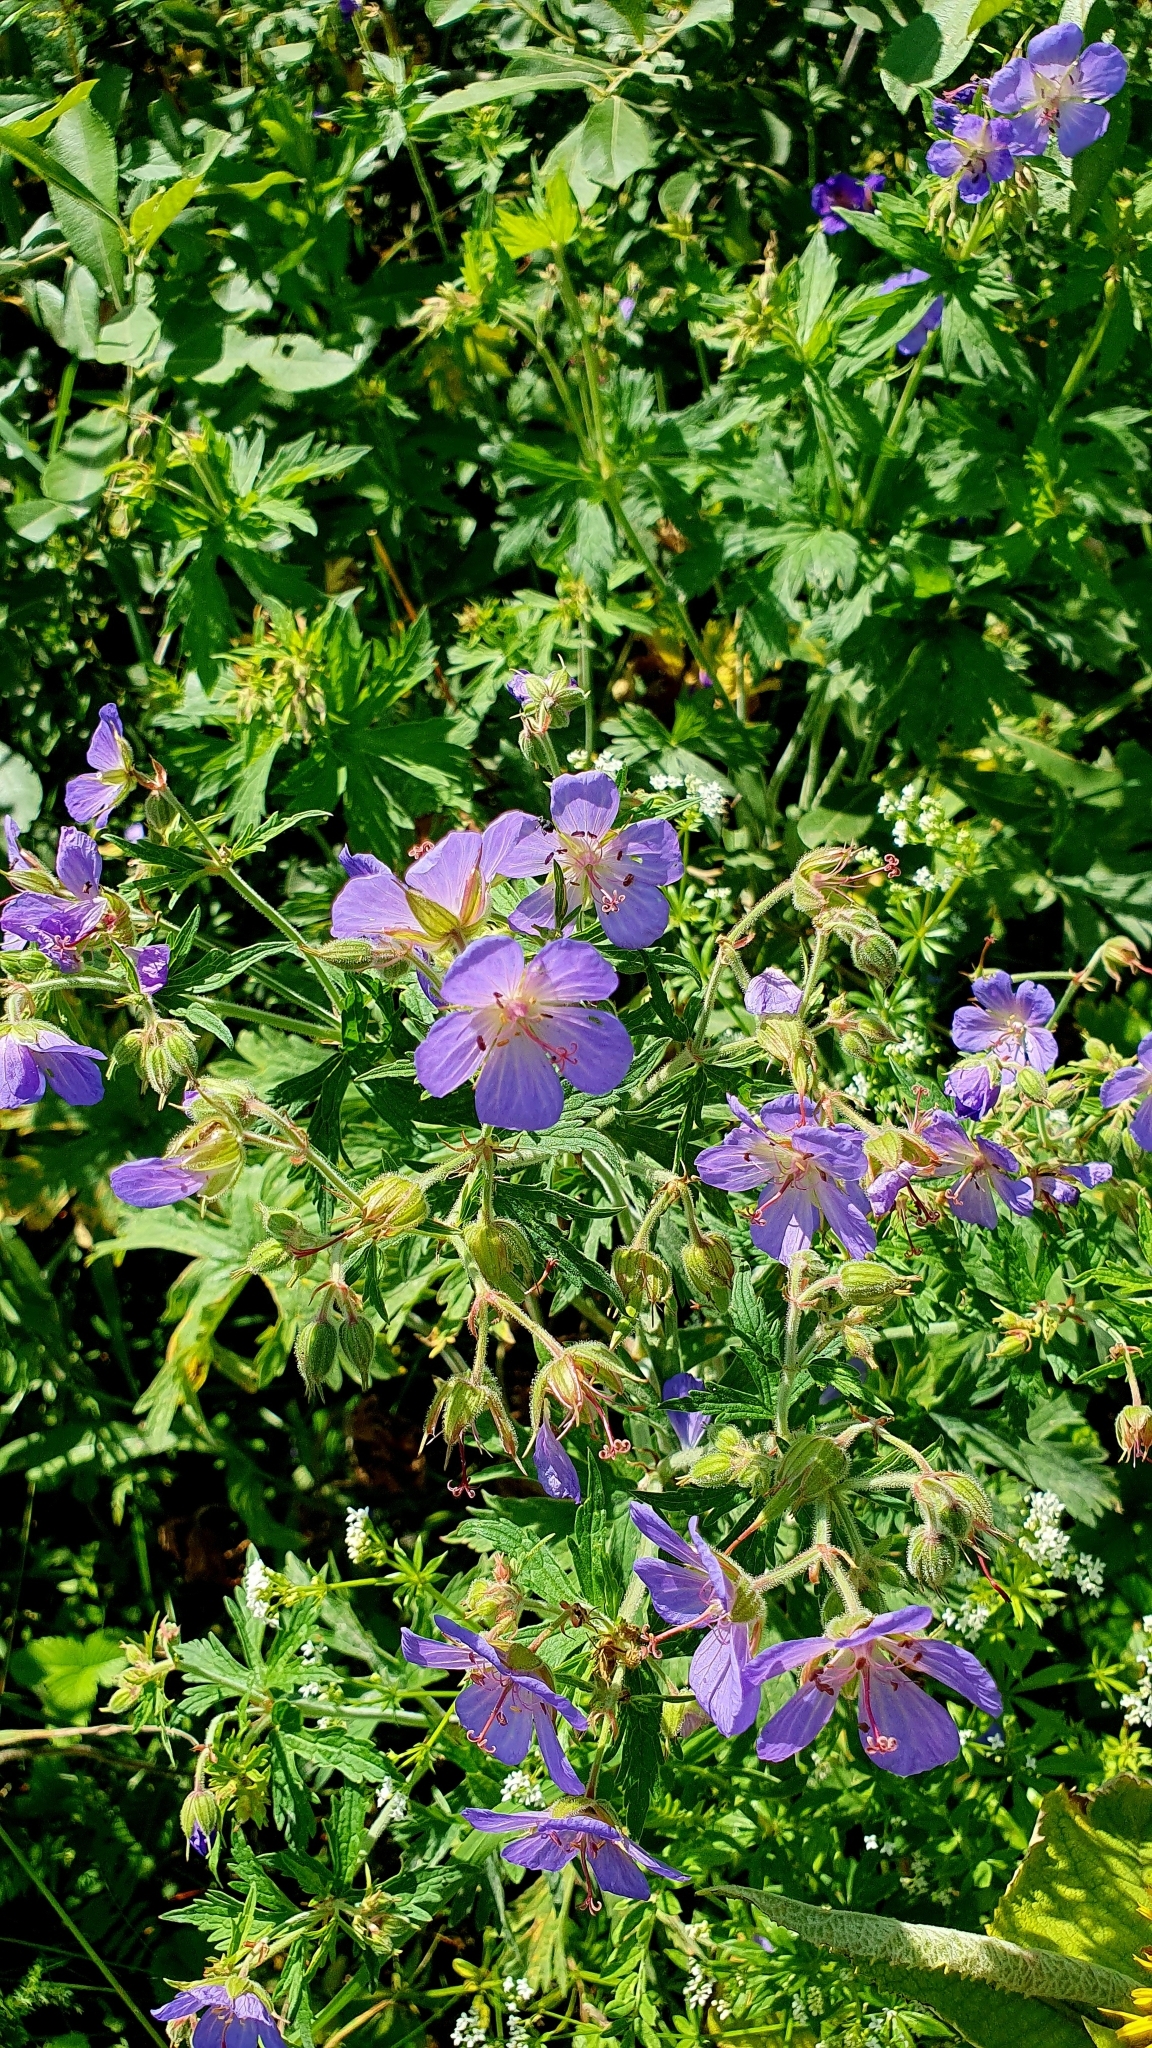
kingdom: Plantae
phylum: Tracheophyta
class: Magnoliopsida
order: Geraniales
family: Geraniaceae
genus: Geranium
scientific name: Geranium pratense
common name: Meadow crane's-bill
